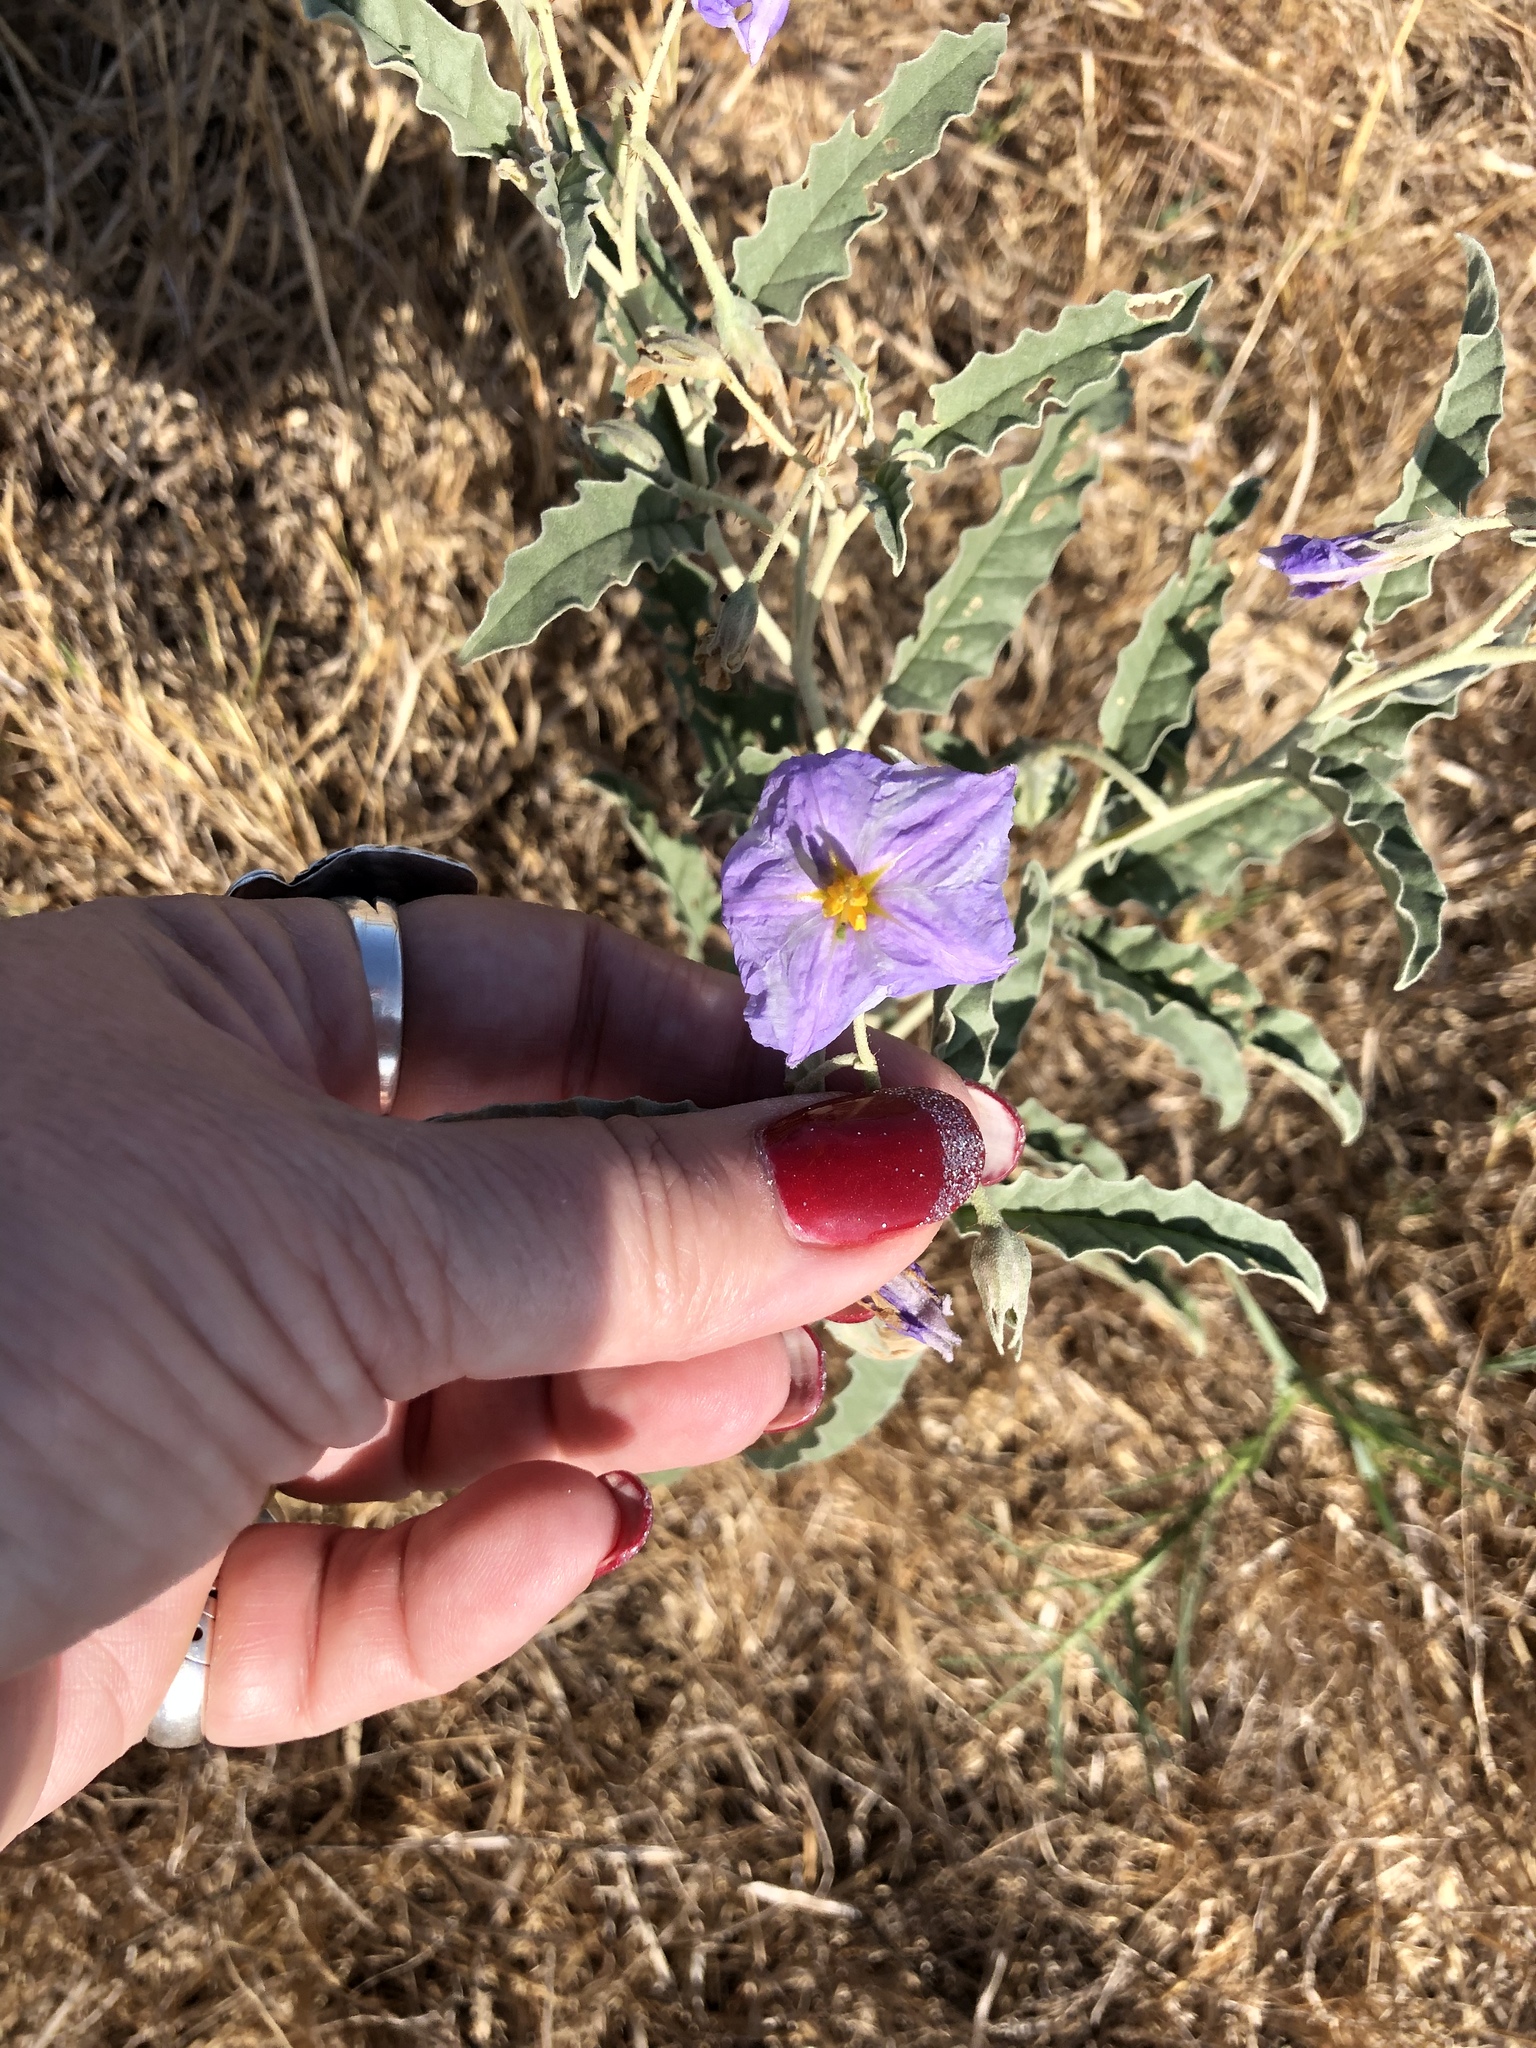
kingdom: Plantae
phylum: Tracheophyta
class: Magnoliopsida
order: Solanales
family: Solanaceae
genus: Solanum
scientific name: Solanum elaeagnifolium
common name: Silverleaf nightshade
